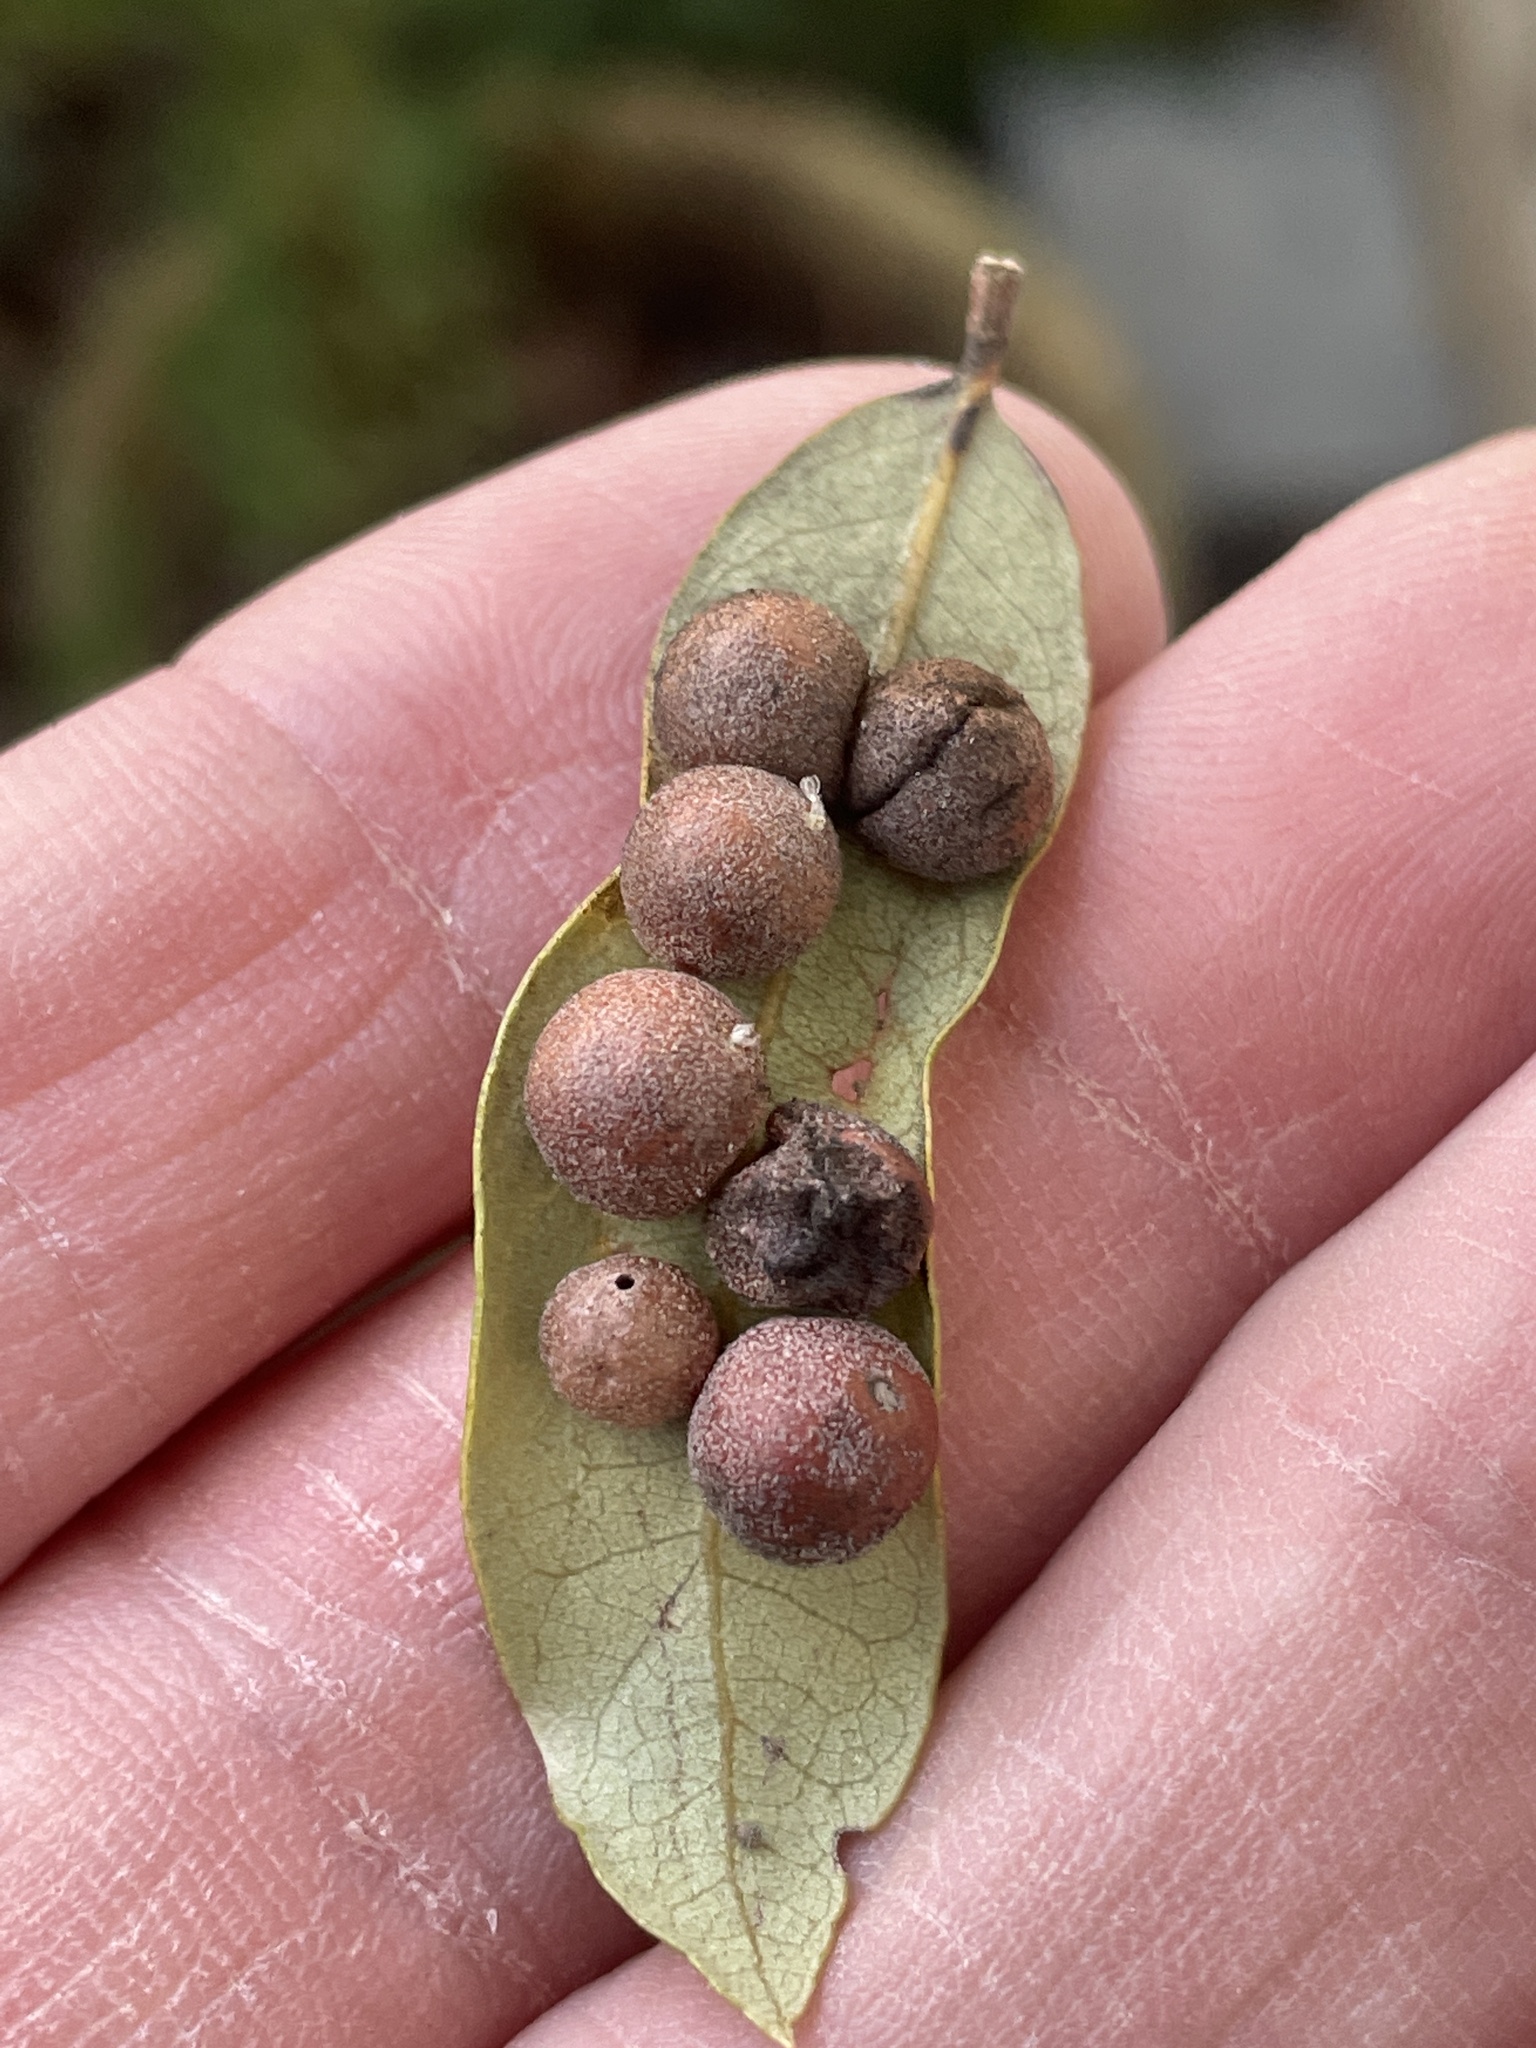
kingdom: Animalia
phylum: Arthropoda
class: Insecta
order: Hymenoptera
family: Cynipidae
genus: Belonocnema
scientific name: Belonocnema kinseyi
